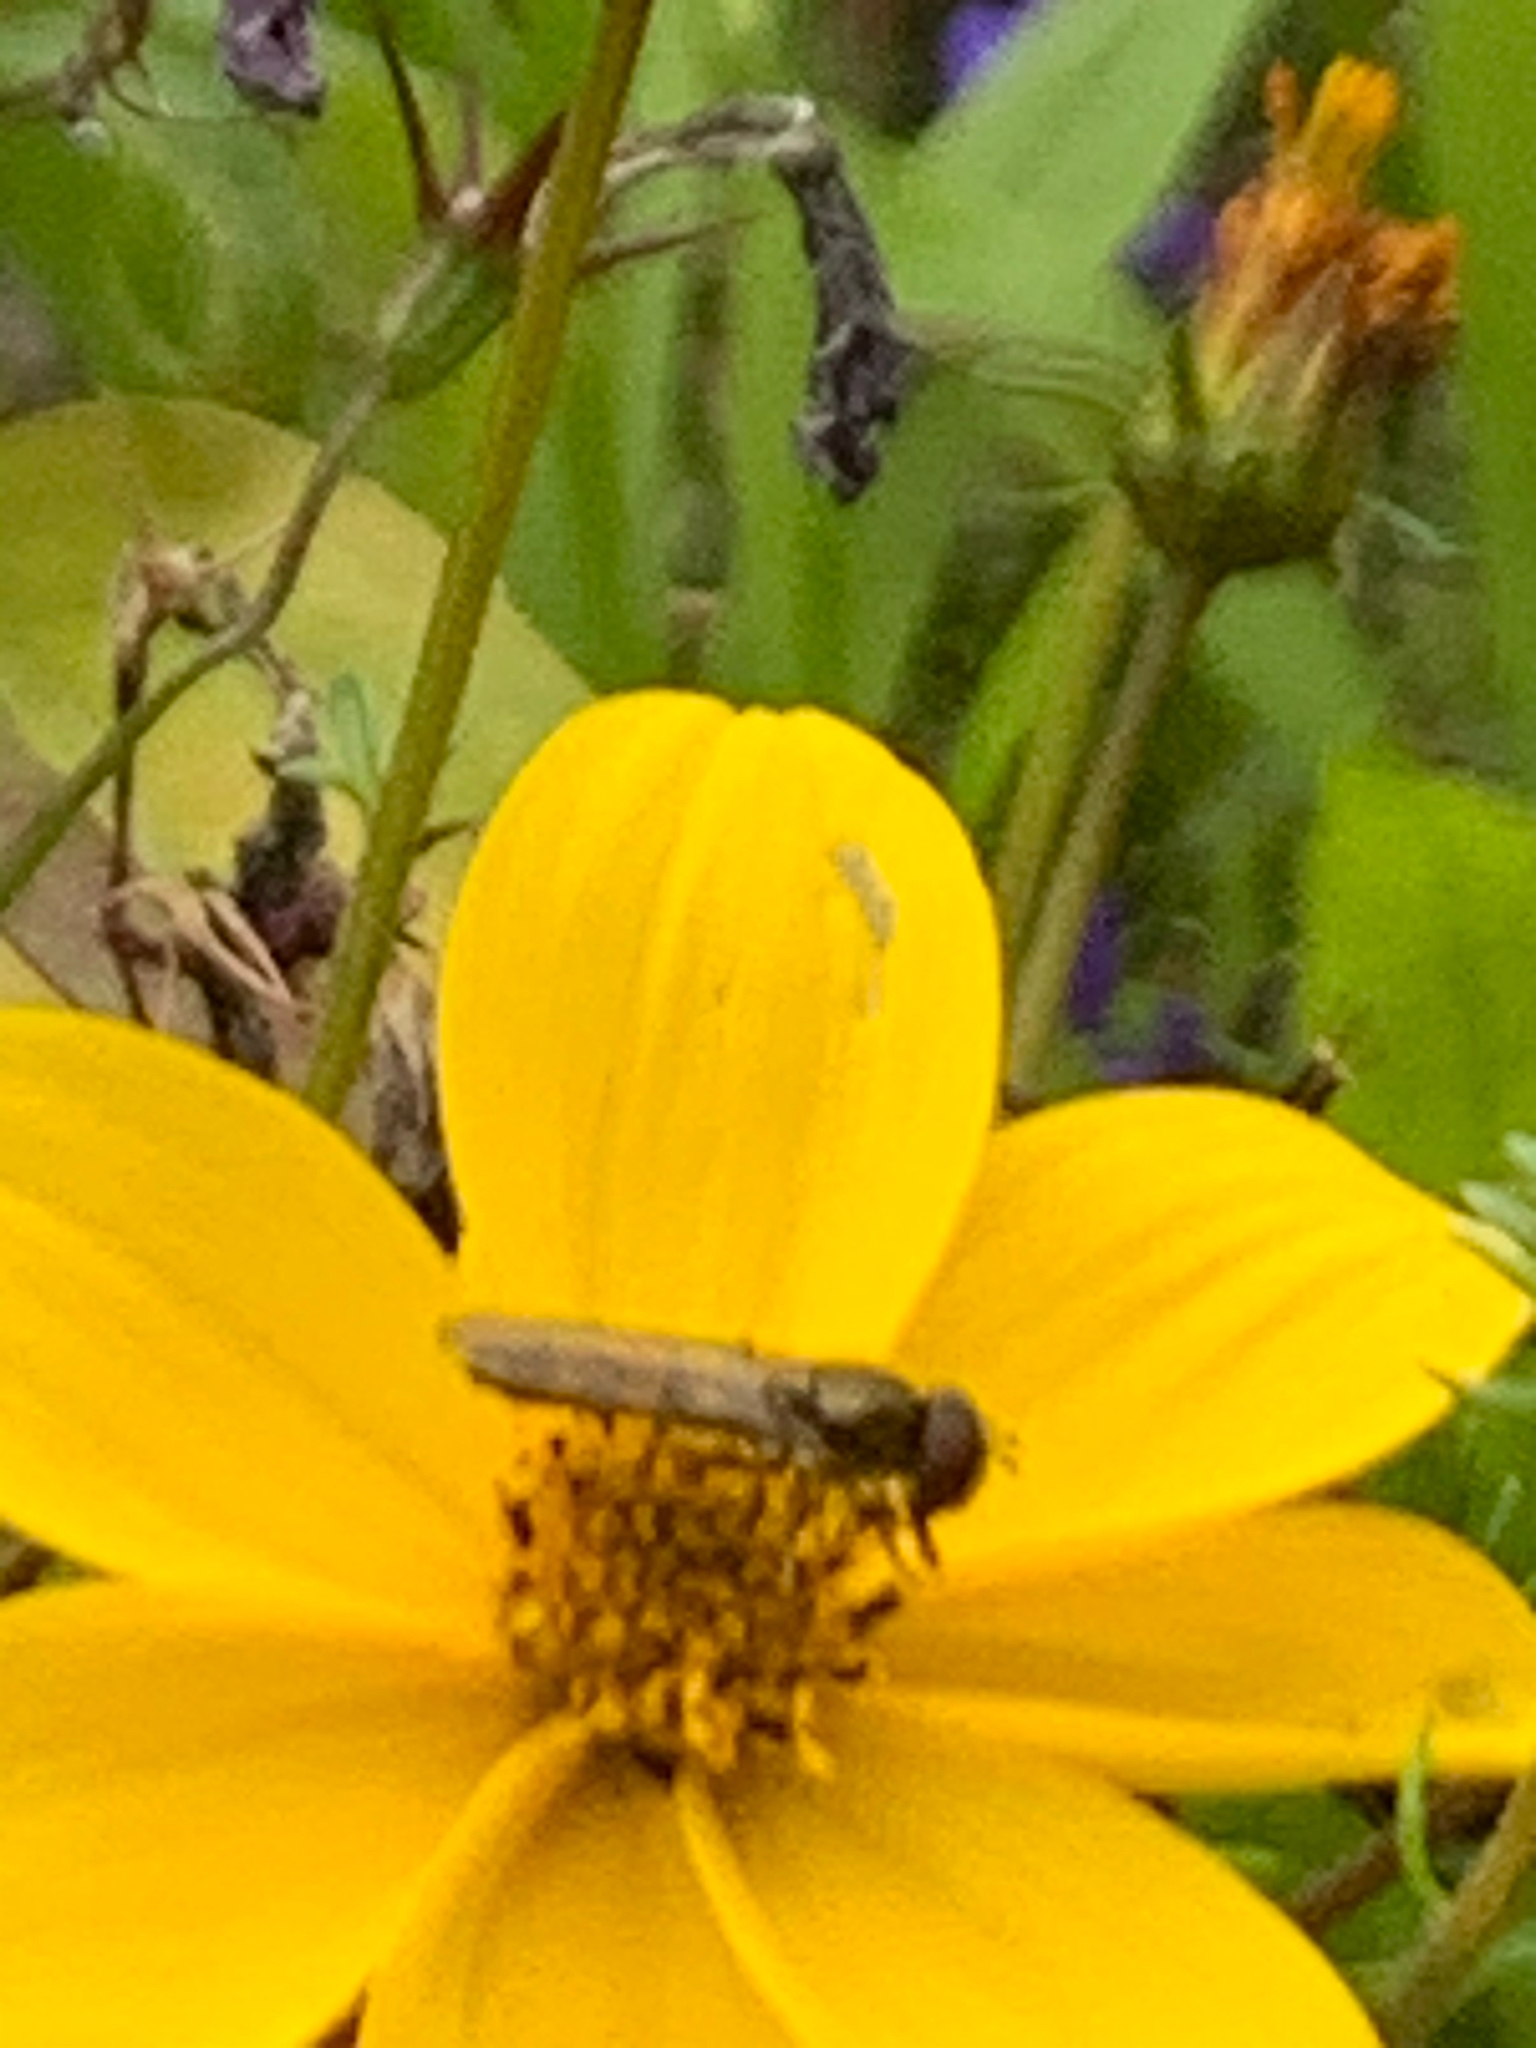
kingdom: Animalia
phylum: Arthropoda
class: Insecta
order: Diptera
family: Syrphidae
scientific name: Syrphidae
